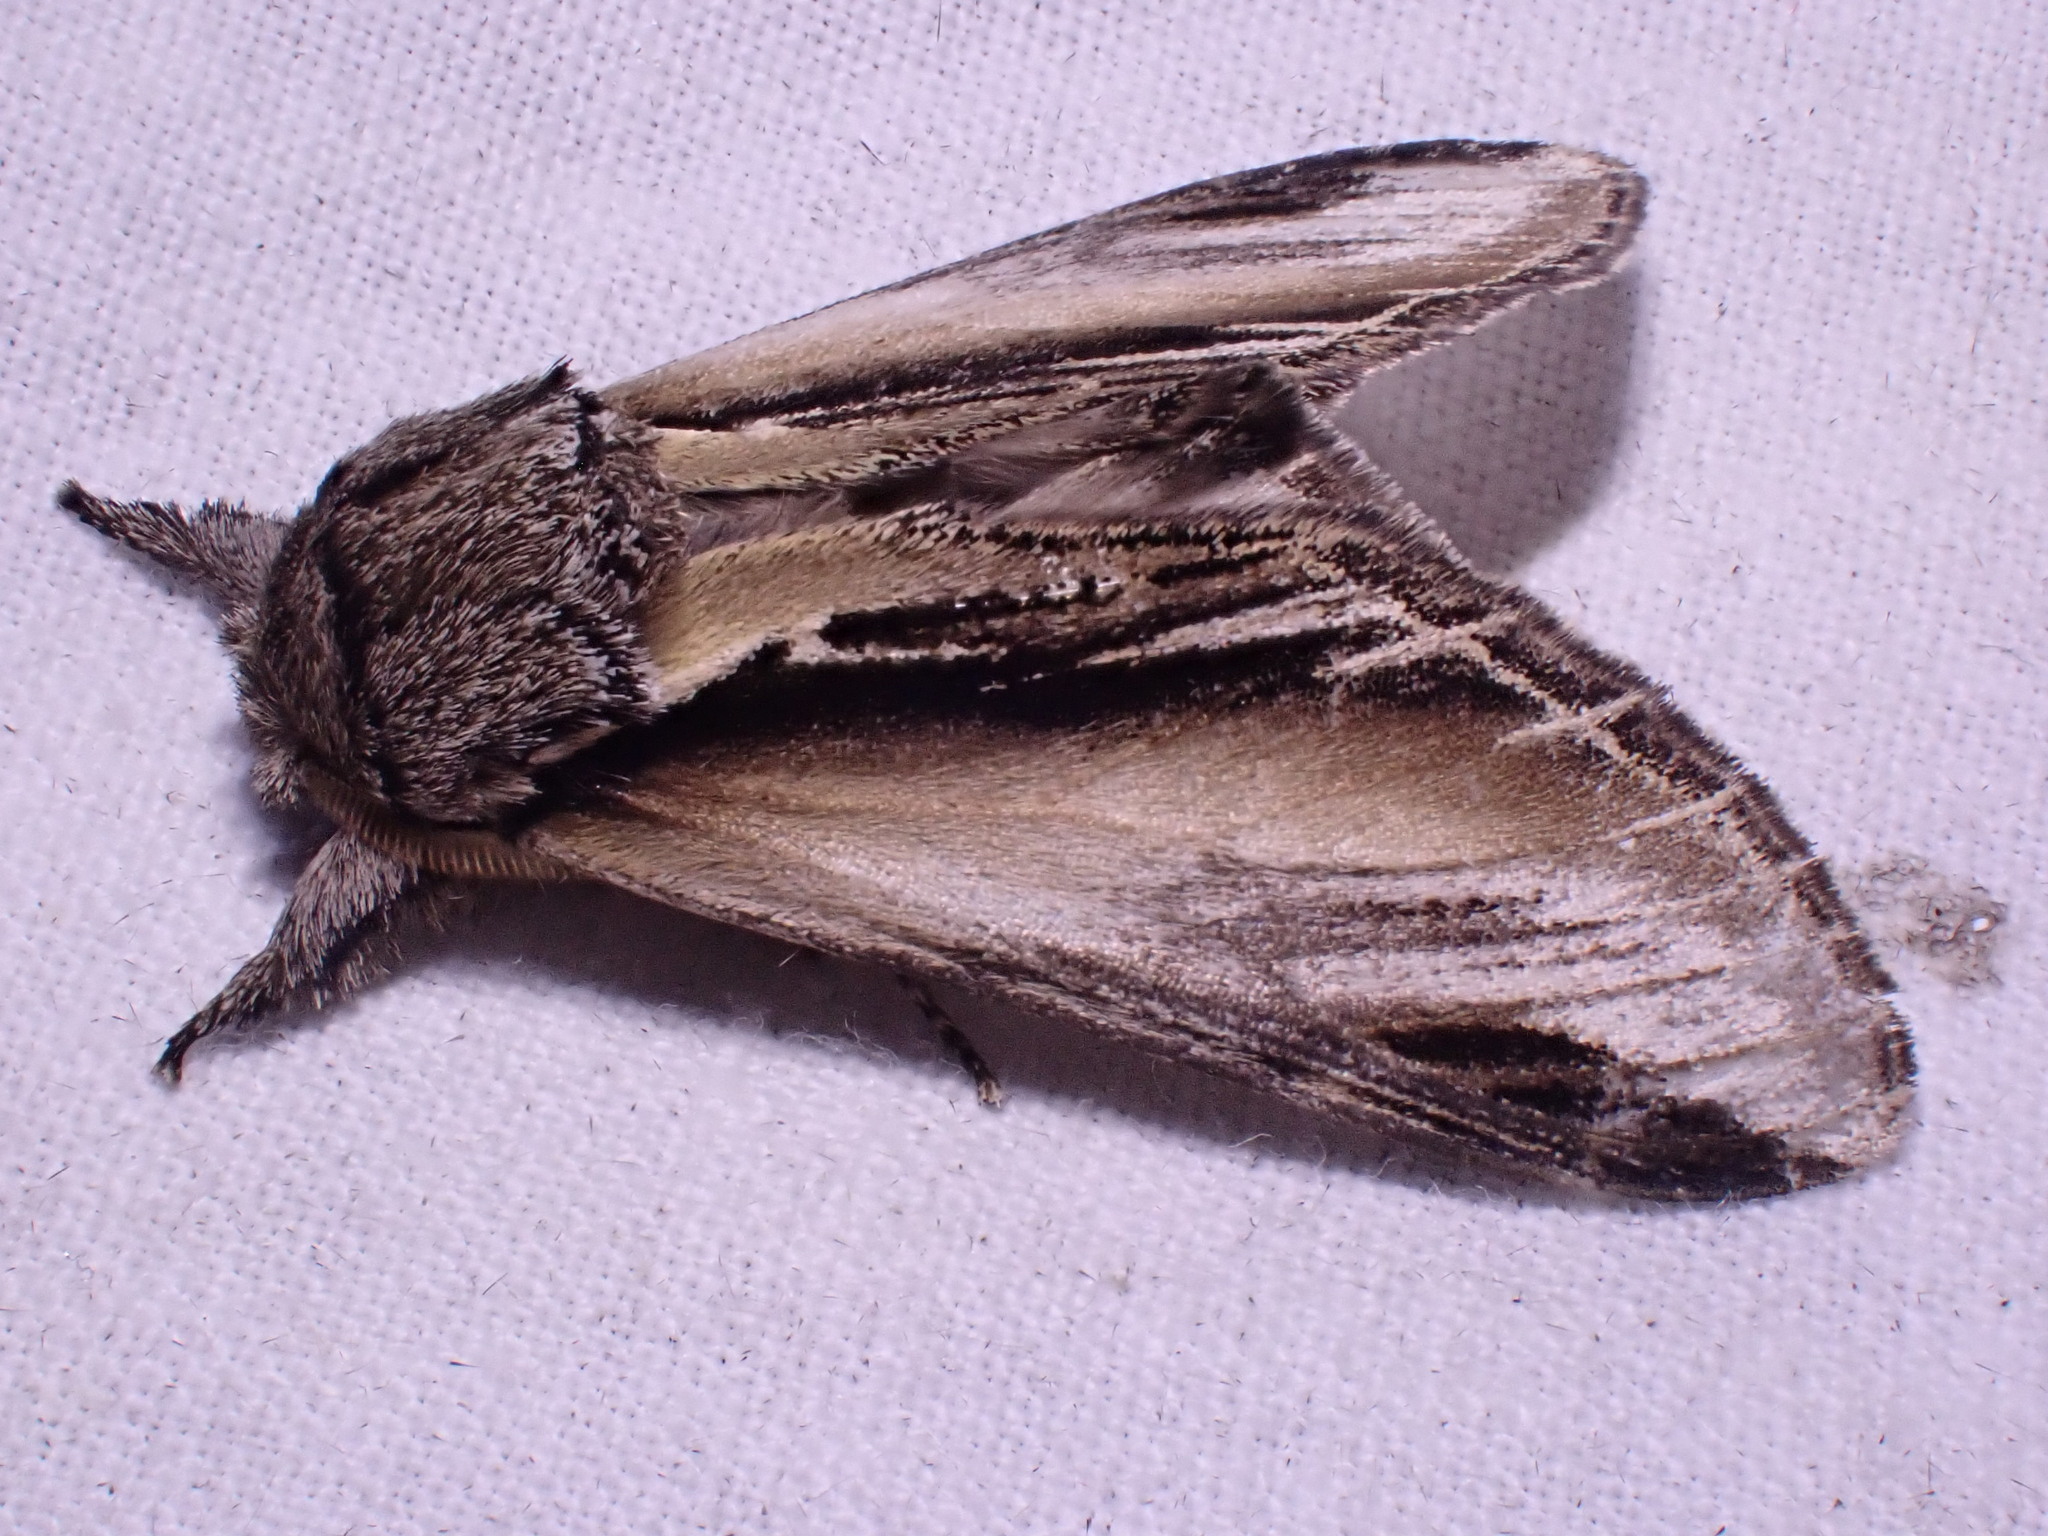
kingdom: Animalia
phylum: Arthropoda
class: Insecta
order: Lepidoptera
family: Notodontidae
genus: Pheosia
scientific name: Pheosia tremula
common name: Swallow prominent
